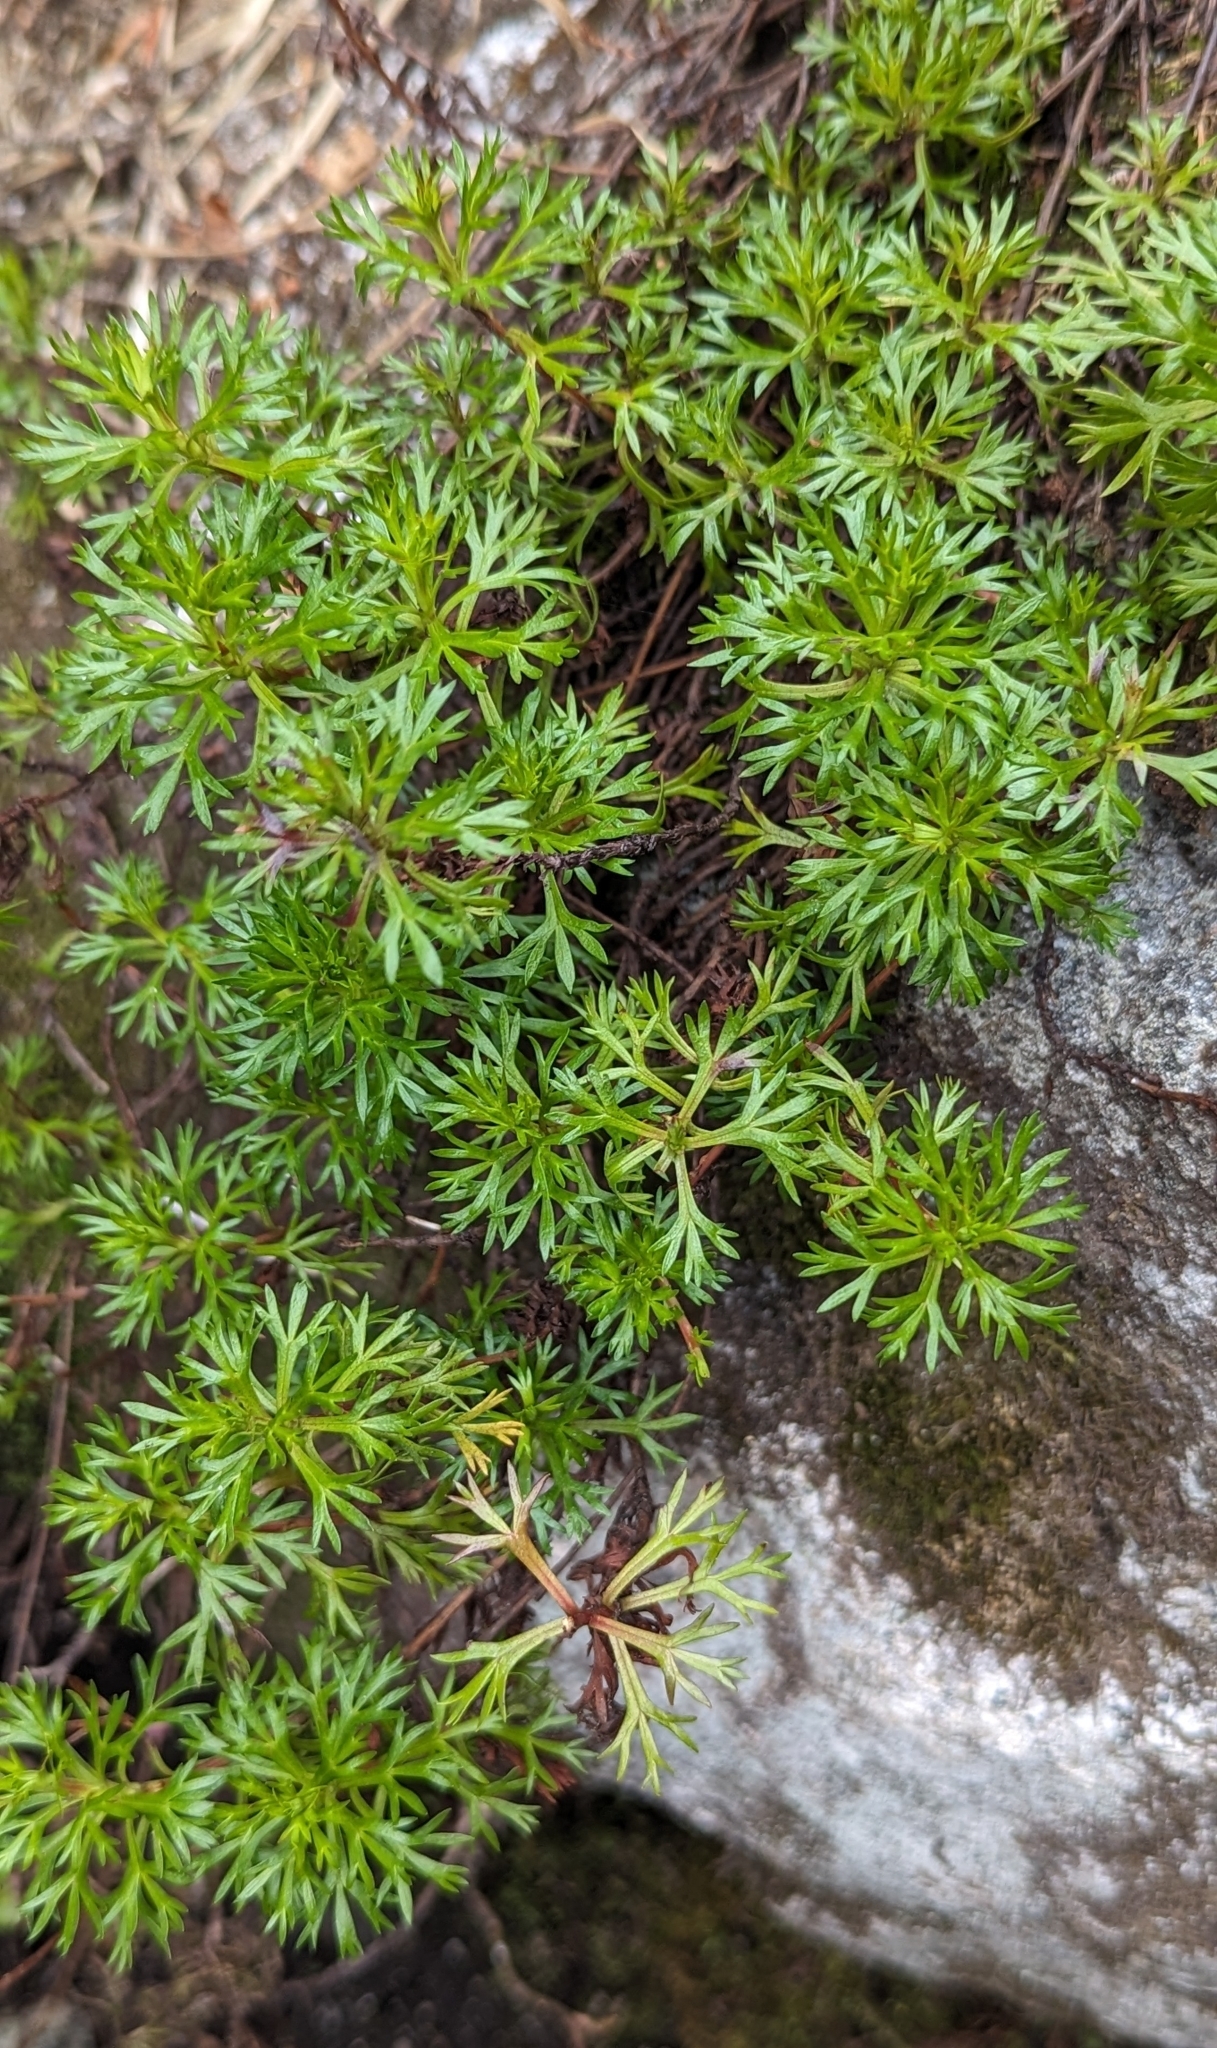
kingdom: Plantae
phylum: Tracheophyta
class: Magnoliopsida
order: Rosales
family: Rosaceae
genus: Luetkea
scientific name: Luetkea pectinata
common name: Partridgefoot
